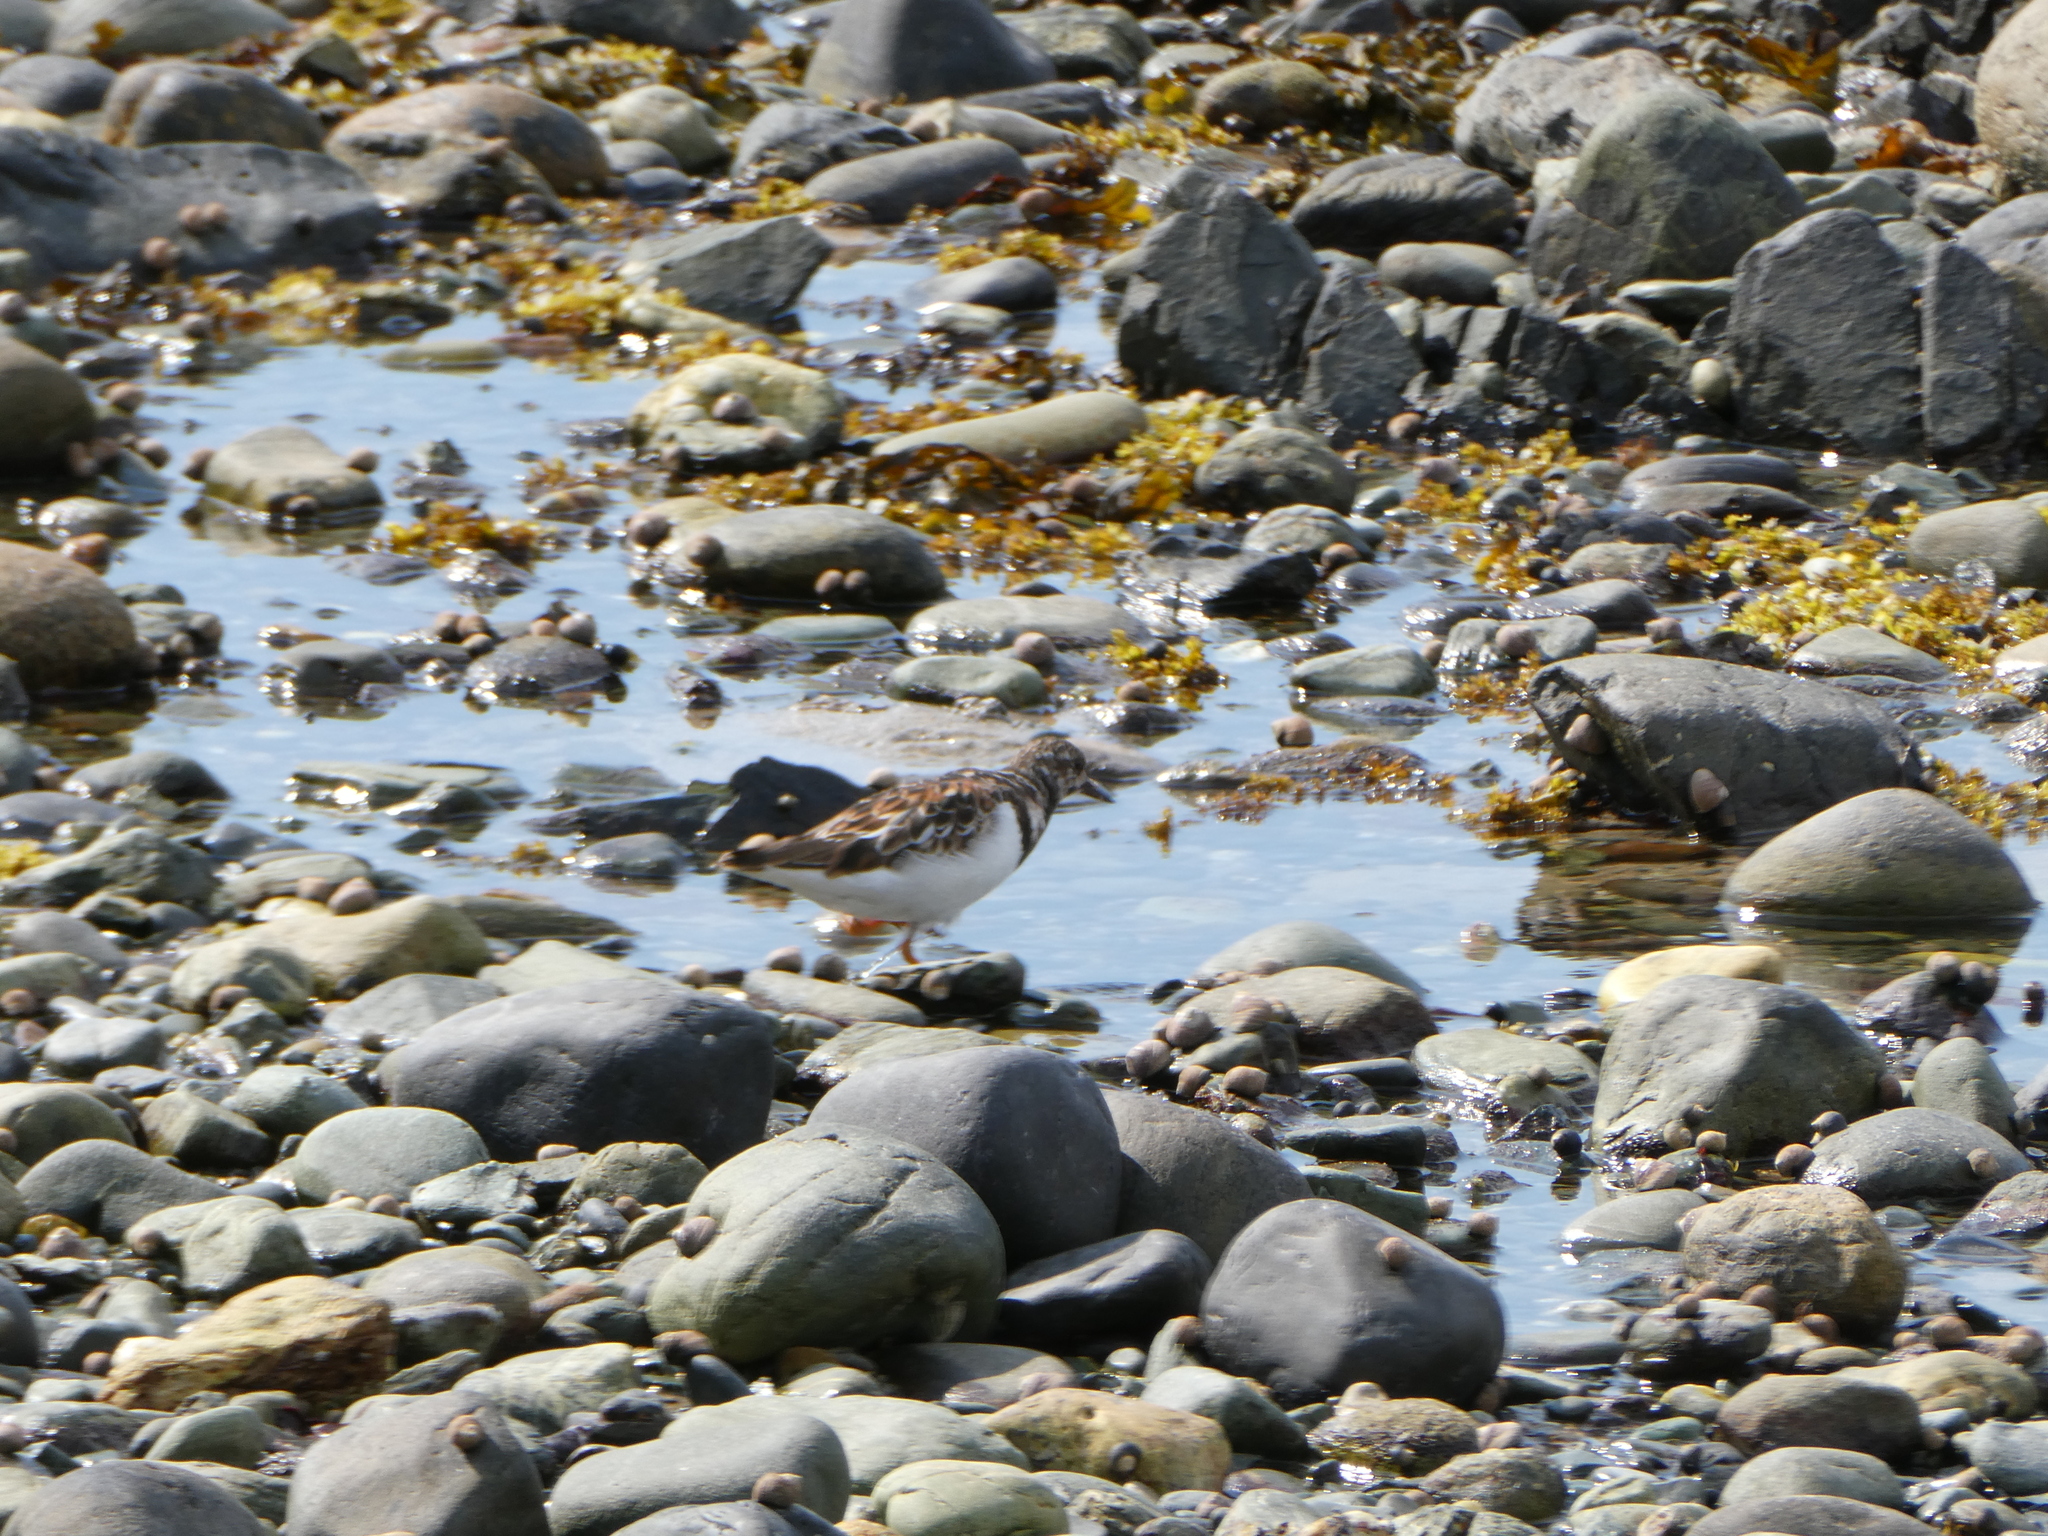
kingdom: Animalia
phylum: Chordata
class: Aves
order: Charadriiformes
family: Scolopacidae
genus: Arenaria
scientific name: Arenaria interpres
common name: Ruddy turnstone
